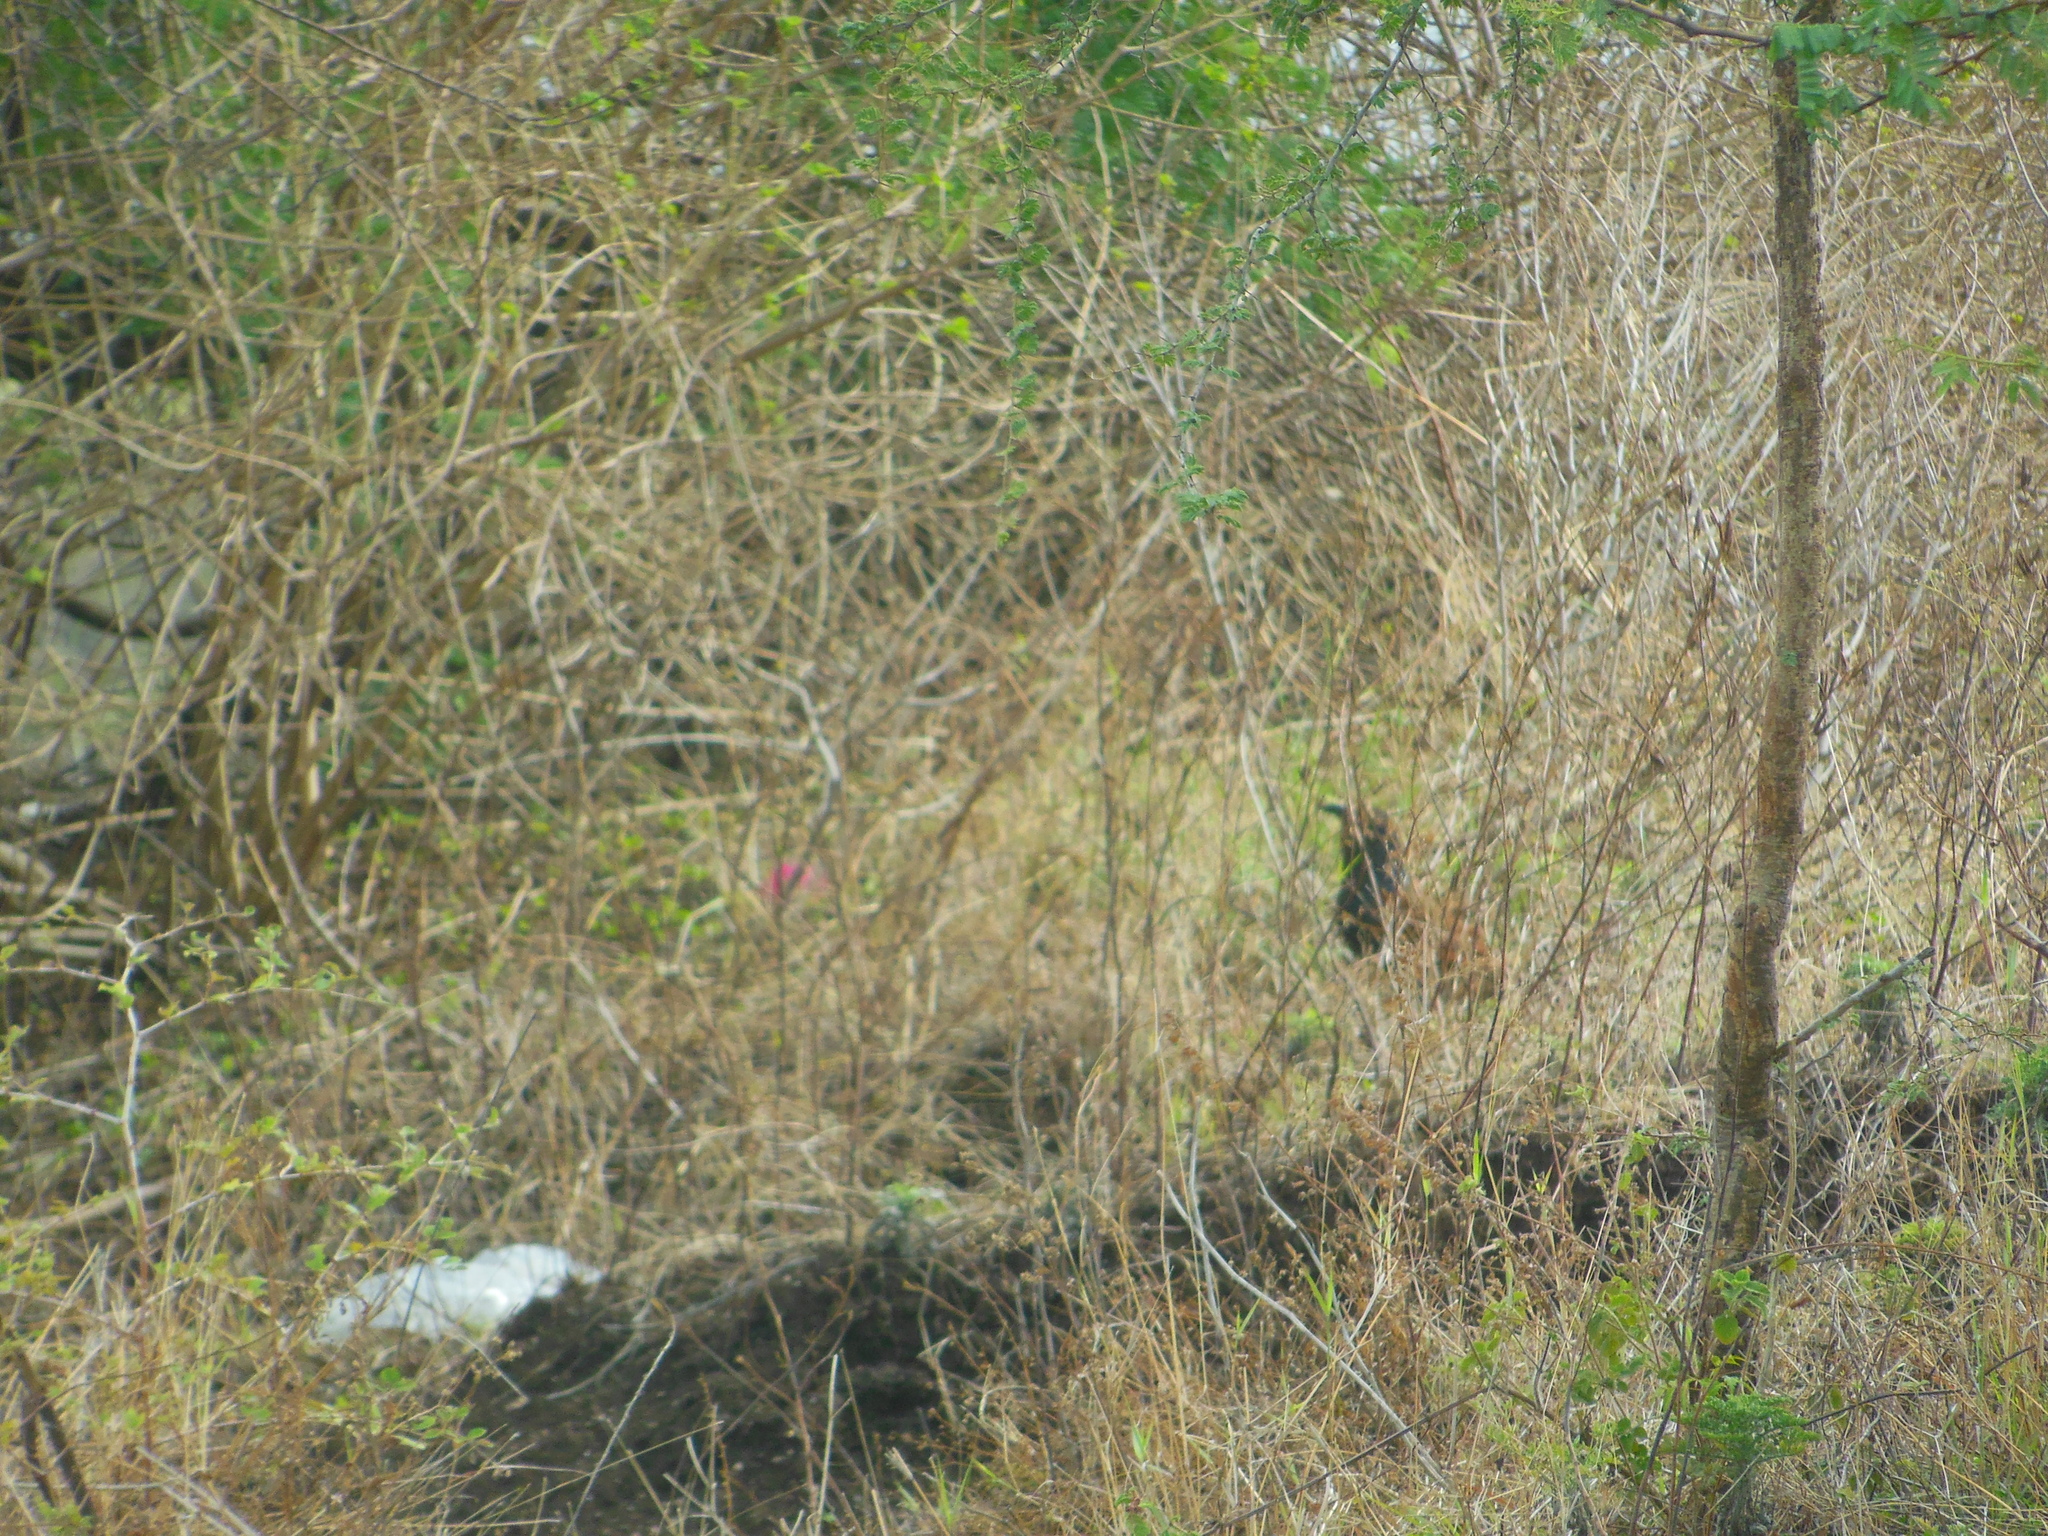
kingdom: Animalia
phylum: Chordata
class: Aves
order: Cuculiformes
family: Cuculidae
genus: Centropus
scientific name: Centropus sinensis
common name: Greater coucal
